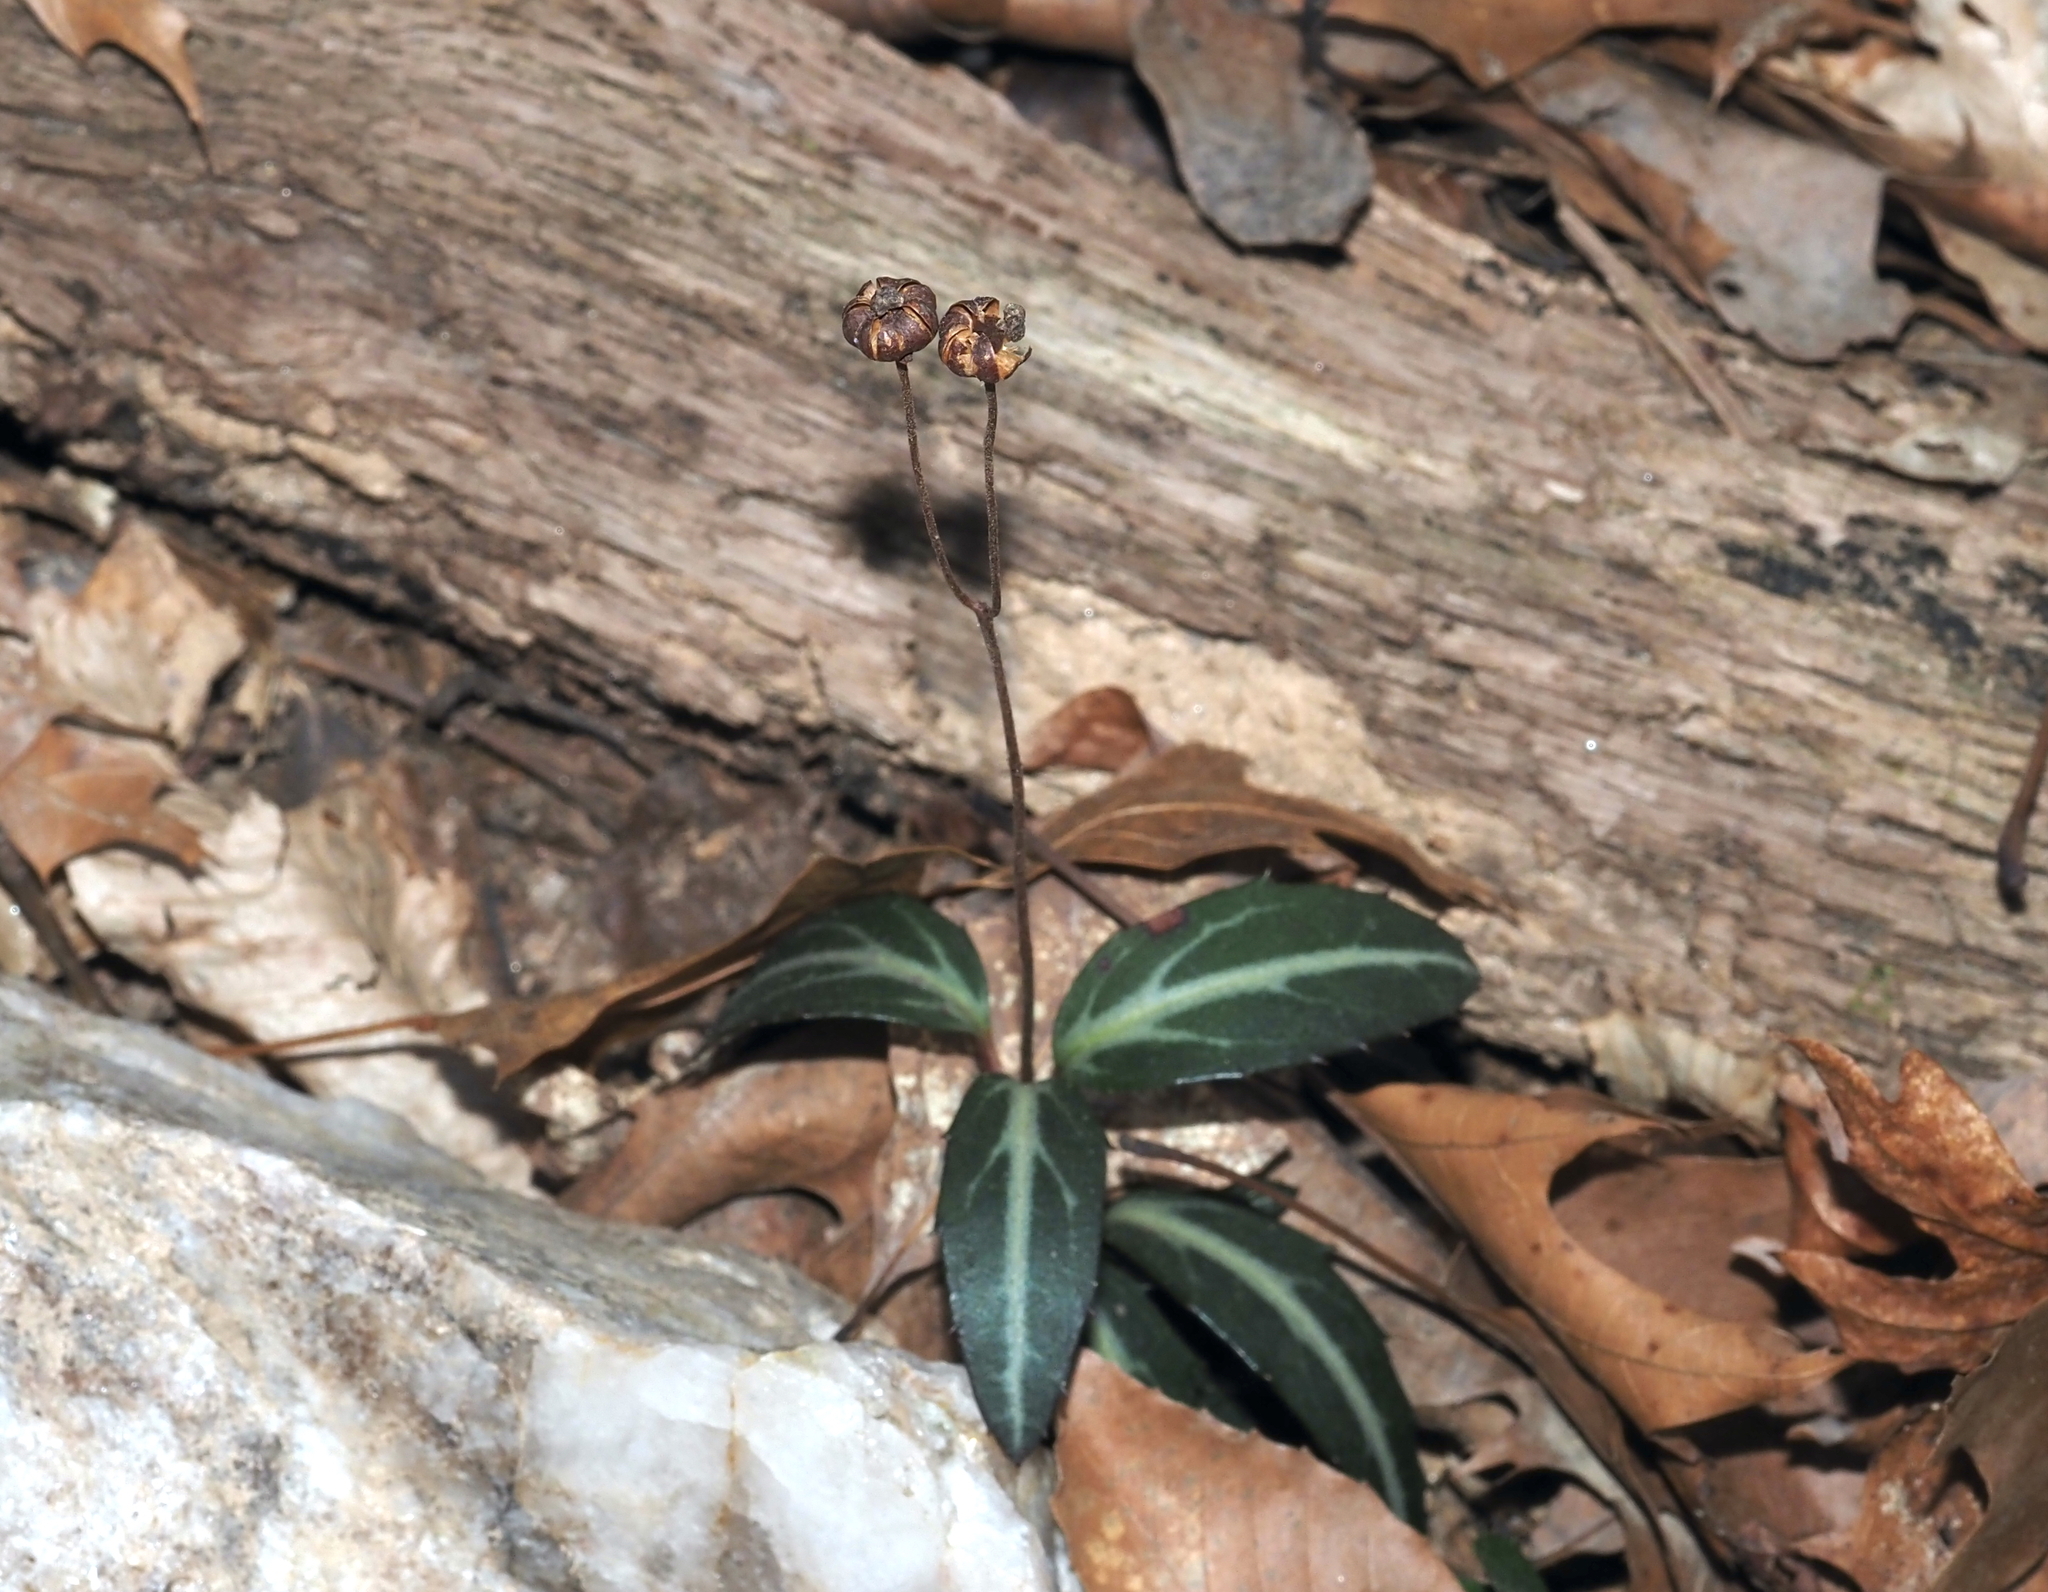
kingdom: Plantae
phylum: Tracheophyta
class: Magnoliopsida
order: Ericales
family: Ericaceae
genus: Chimaphila
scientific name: Chimaphila maculata
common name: Spotted pipsissewa
